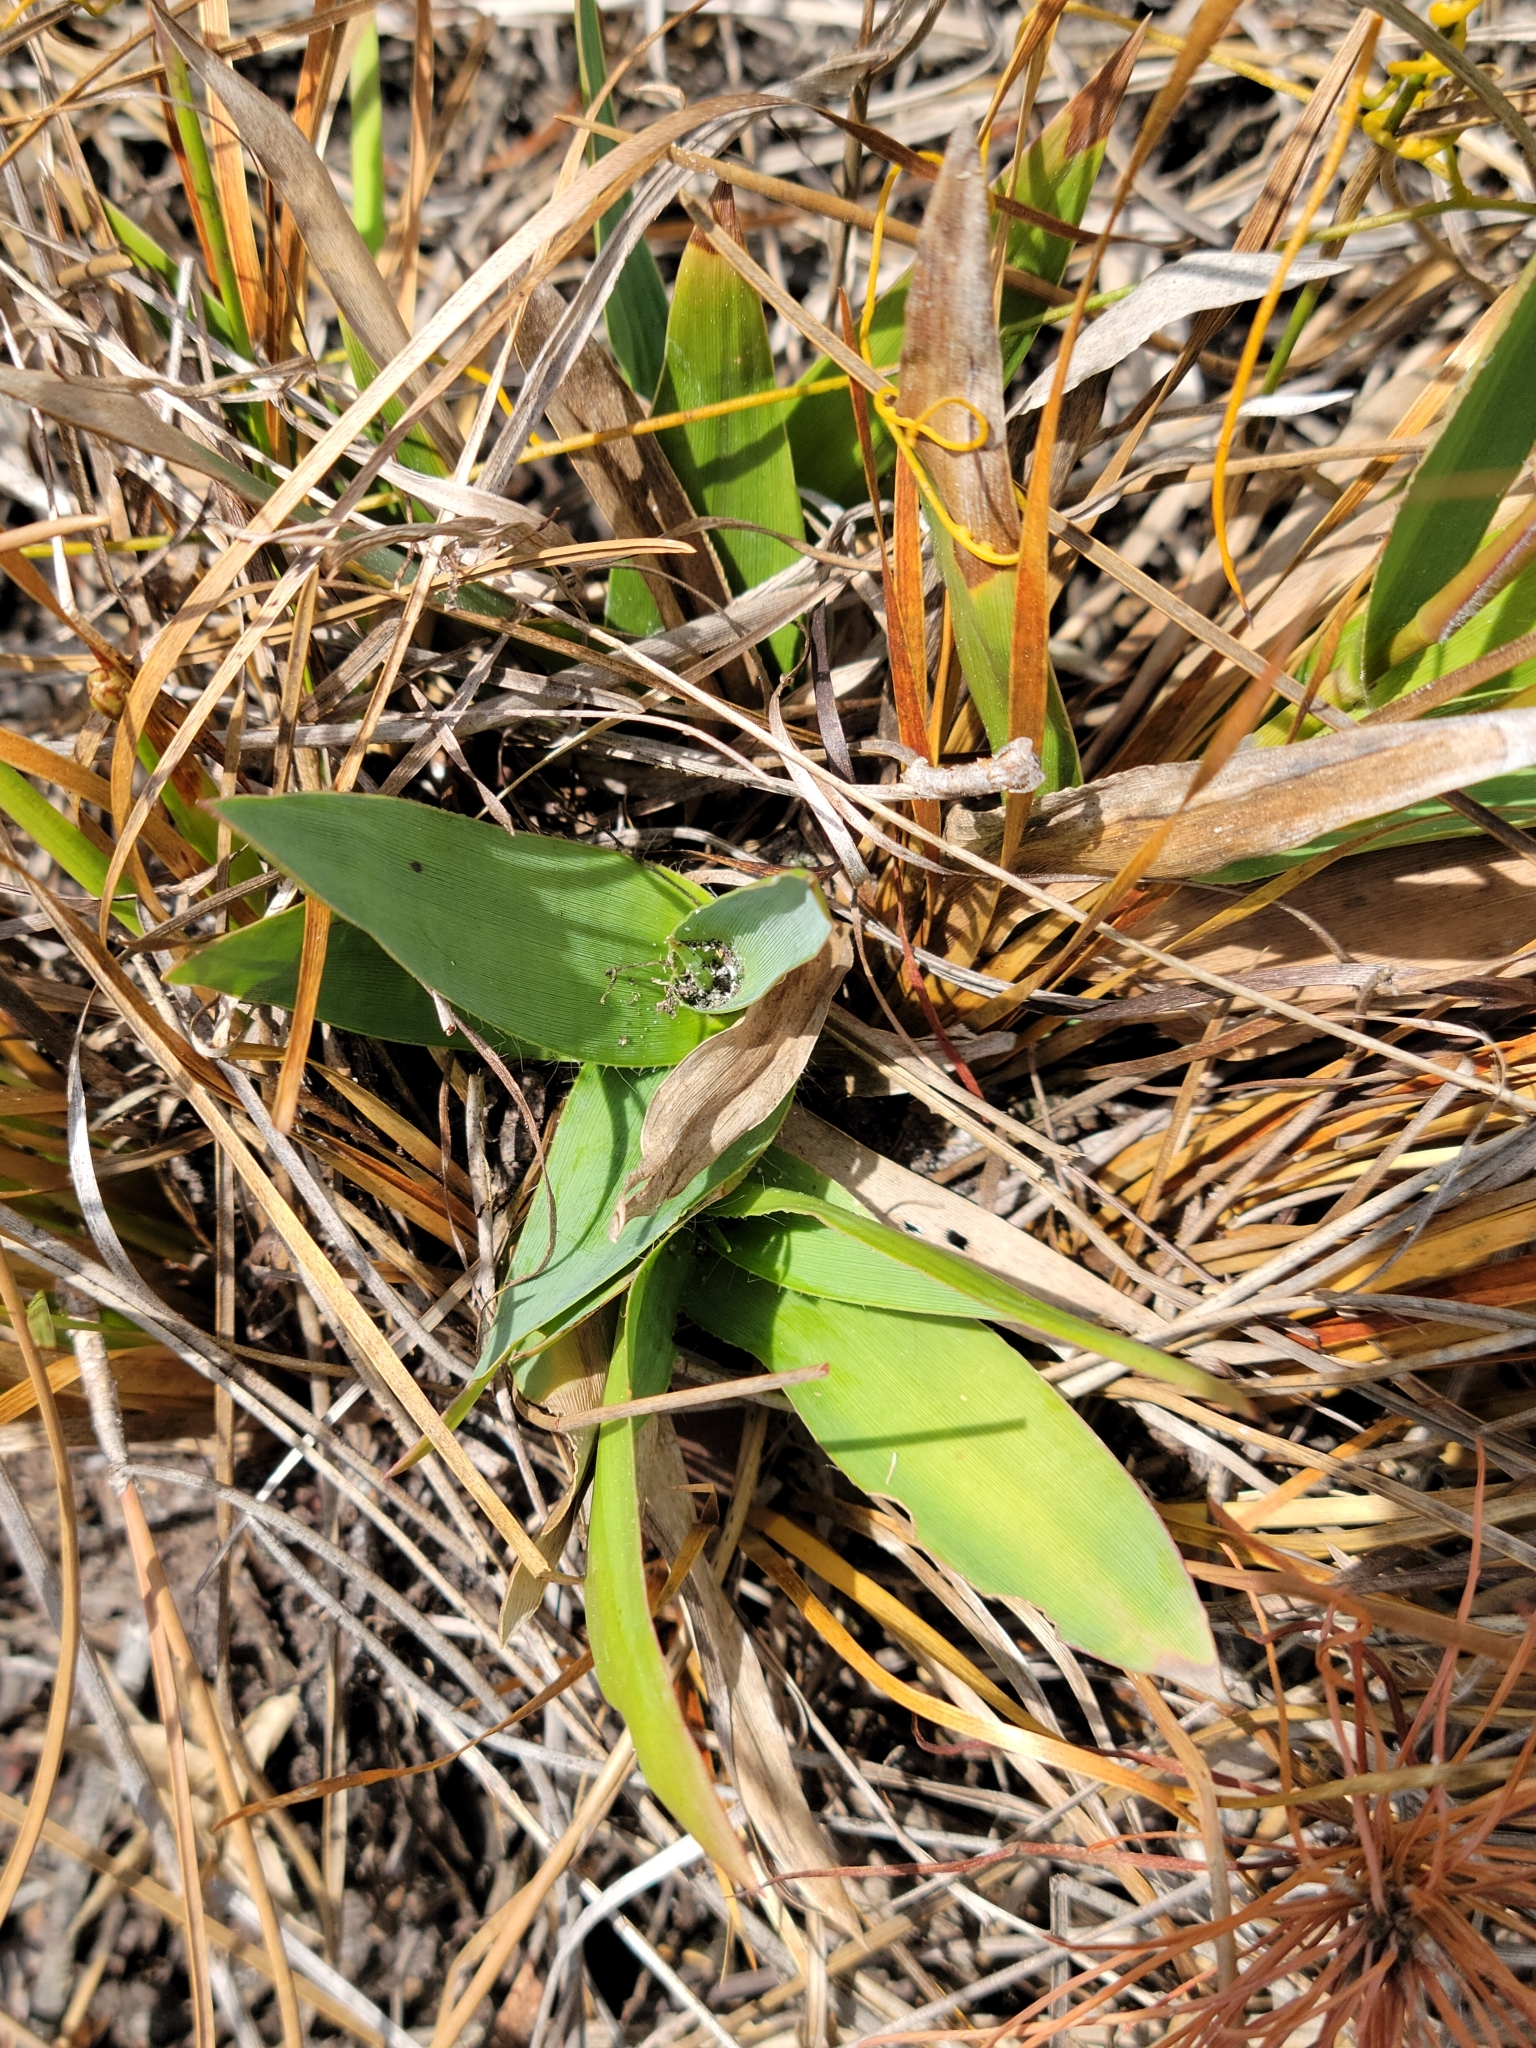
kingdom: Plantae
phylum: Tracheophyta
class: Liliopsida
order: Poales
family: Poaceae
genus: Dichanthelium
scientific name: Dichanthelium erectifolium
